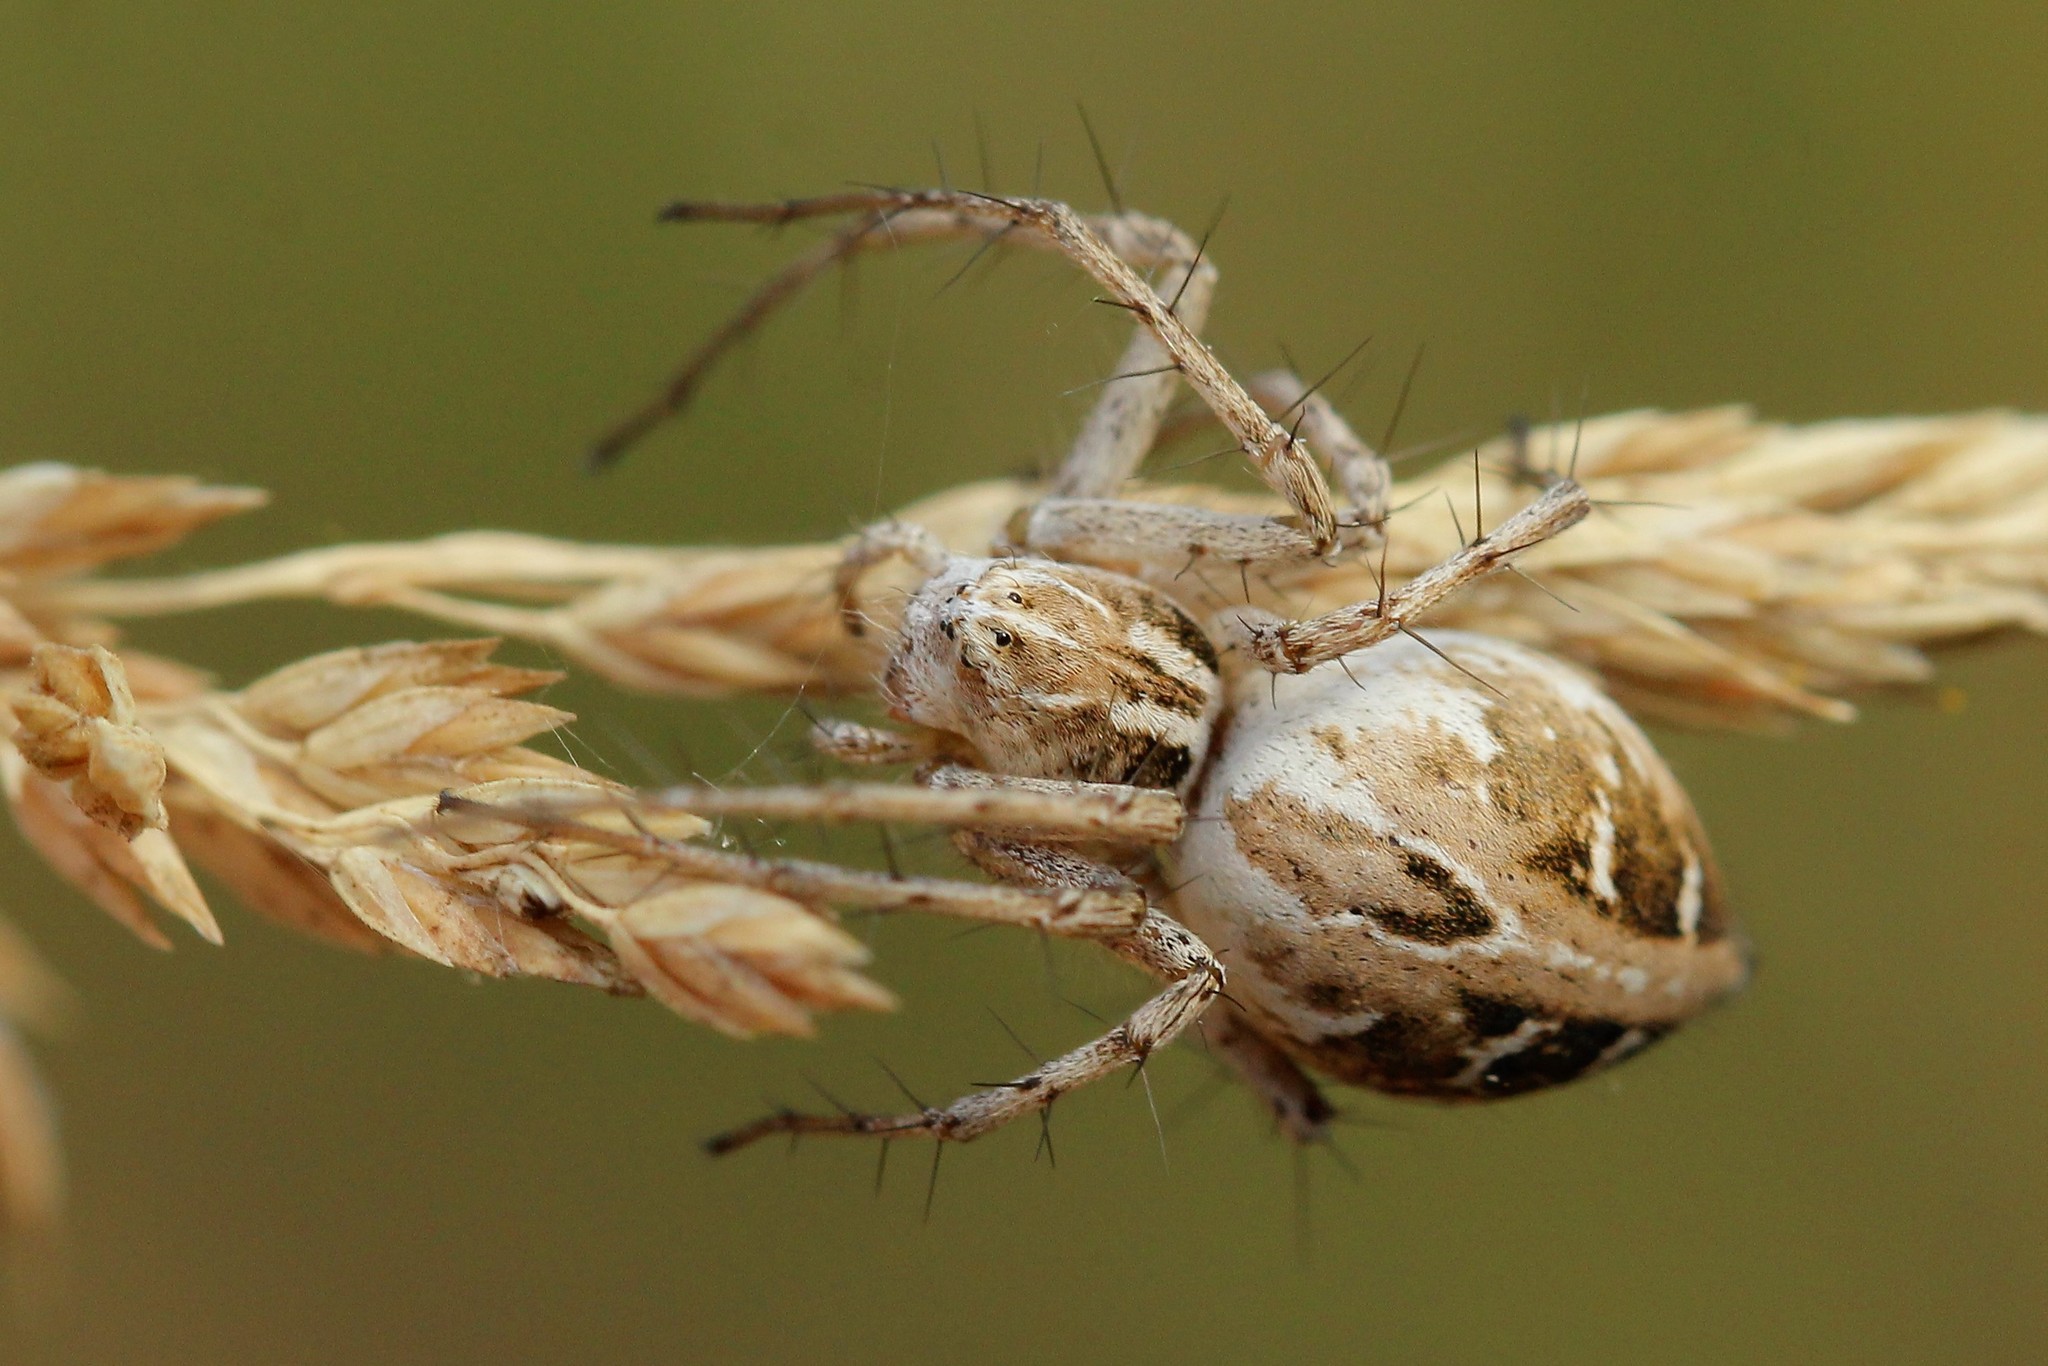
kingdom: Animalia
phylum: Arthropoda
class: Arachnida
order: Araneae
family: Oxyopidae
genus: Oxyopes
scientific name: Oxyopes heterophthalmus
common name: Lynx spider
